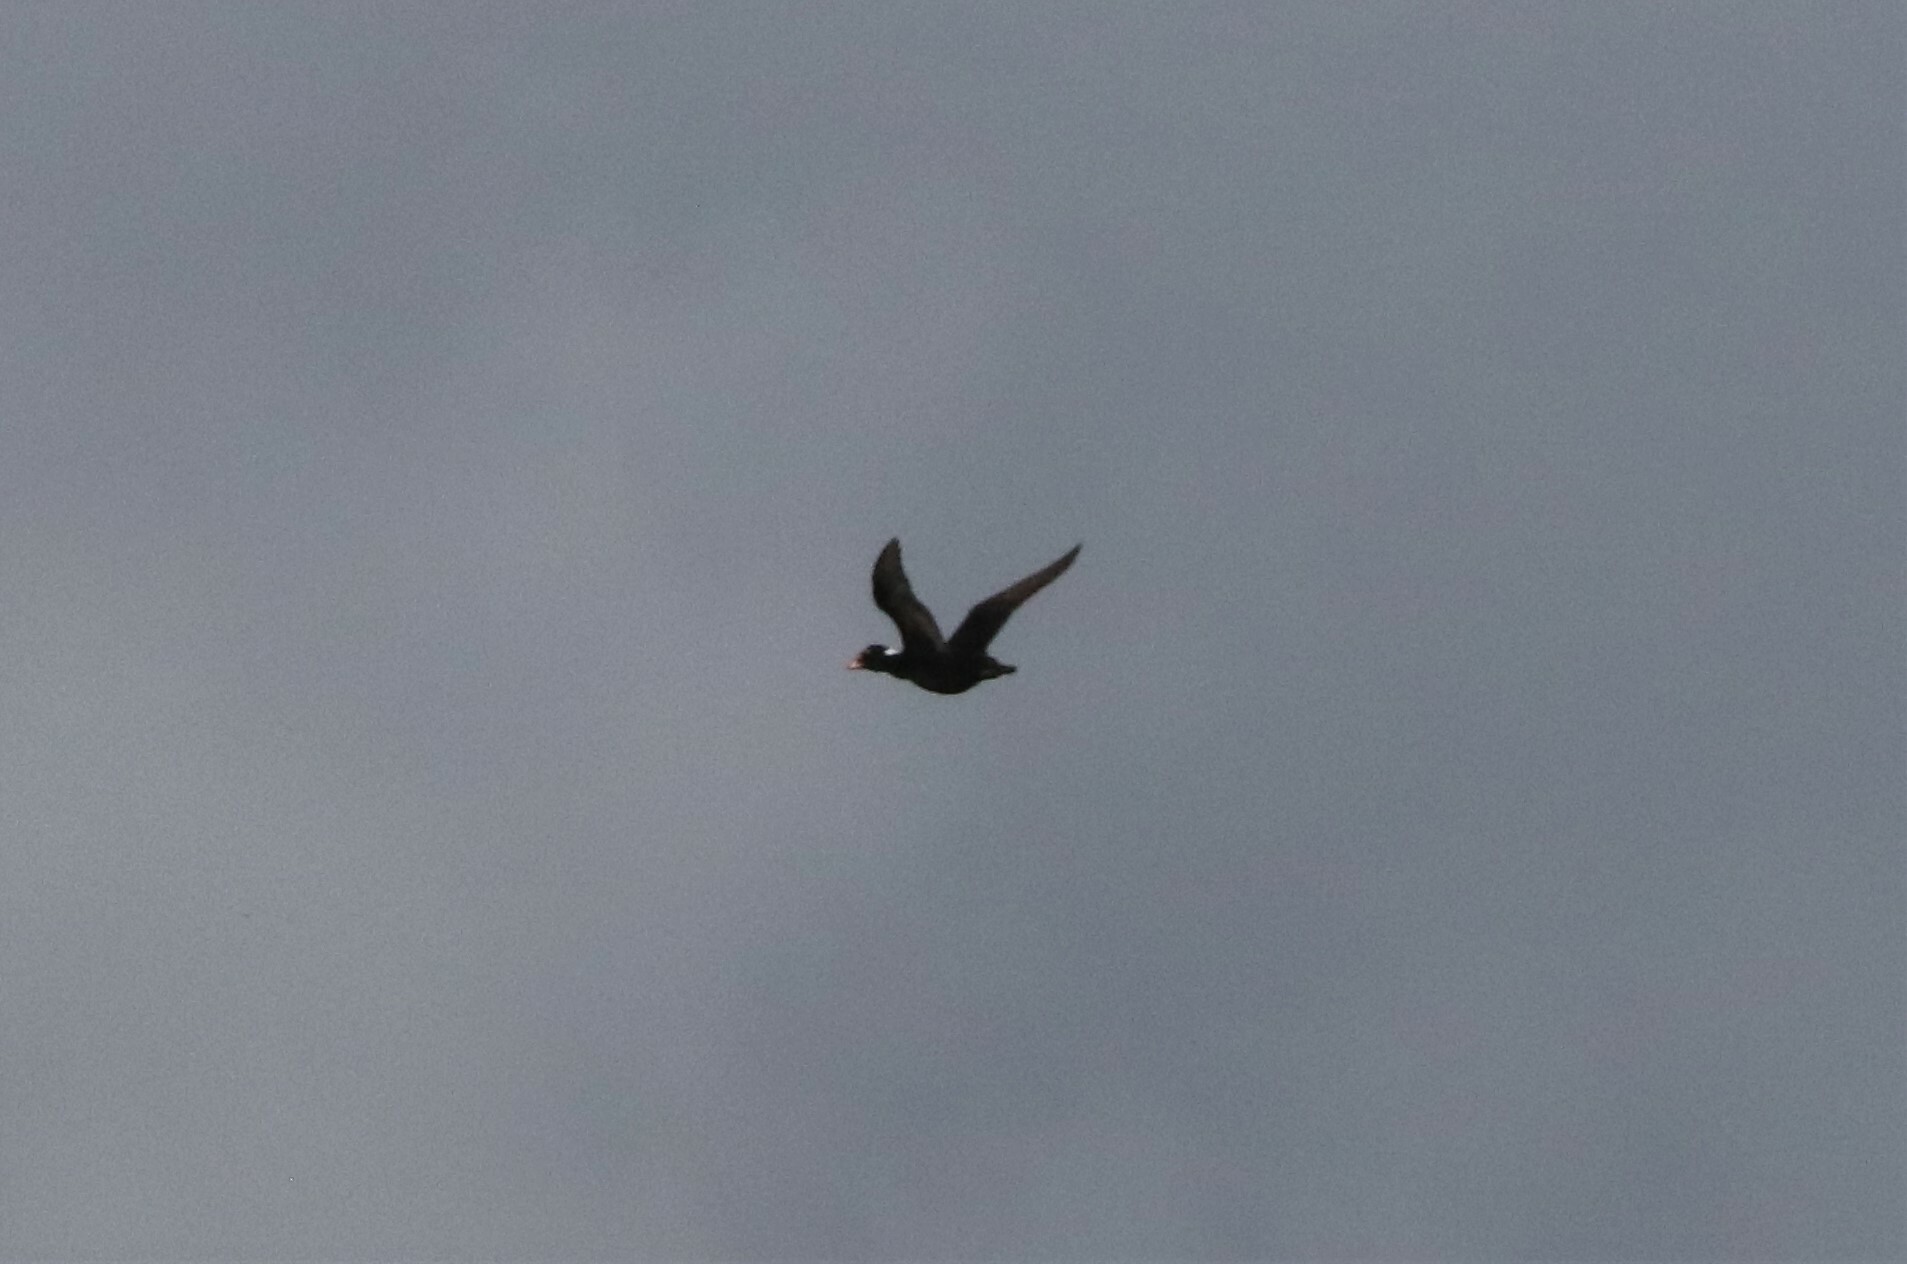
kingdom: Animalia
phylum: Chordata
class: Aves
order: Anseriformes
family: Anatidae
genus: Melanitta
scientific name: Melanitta perspicillata
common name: Surf scoter
